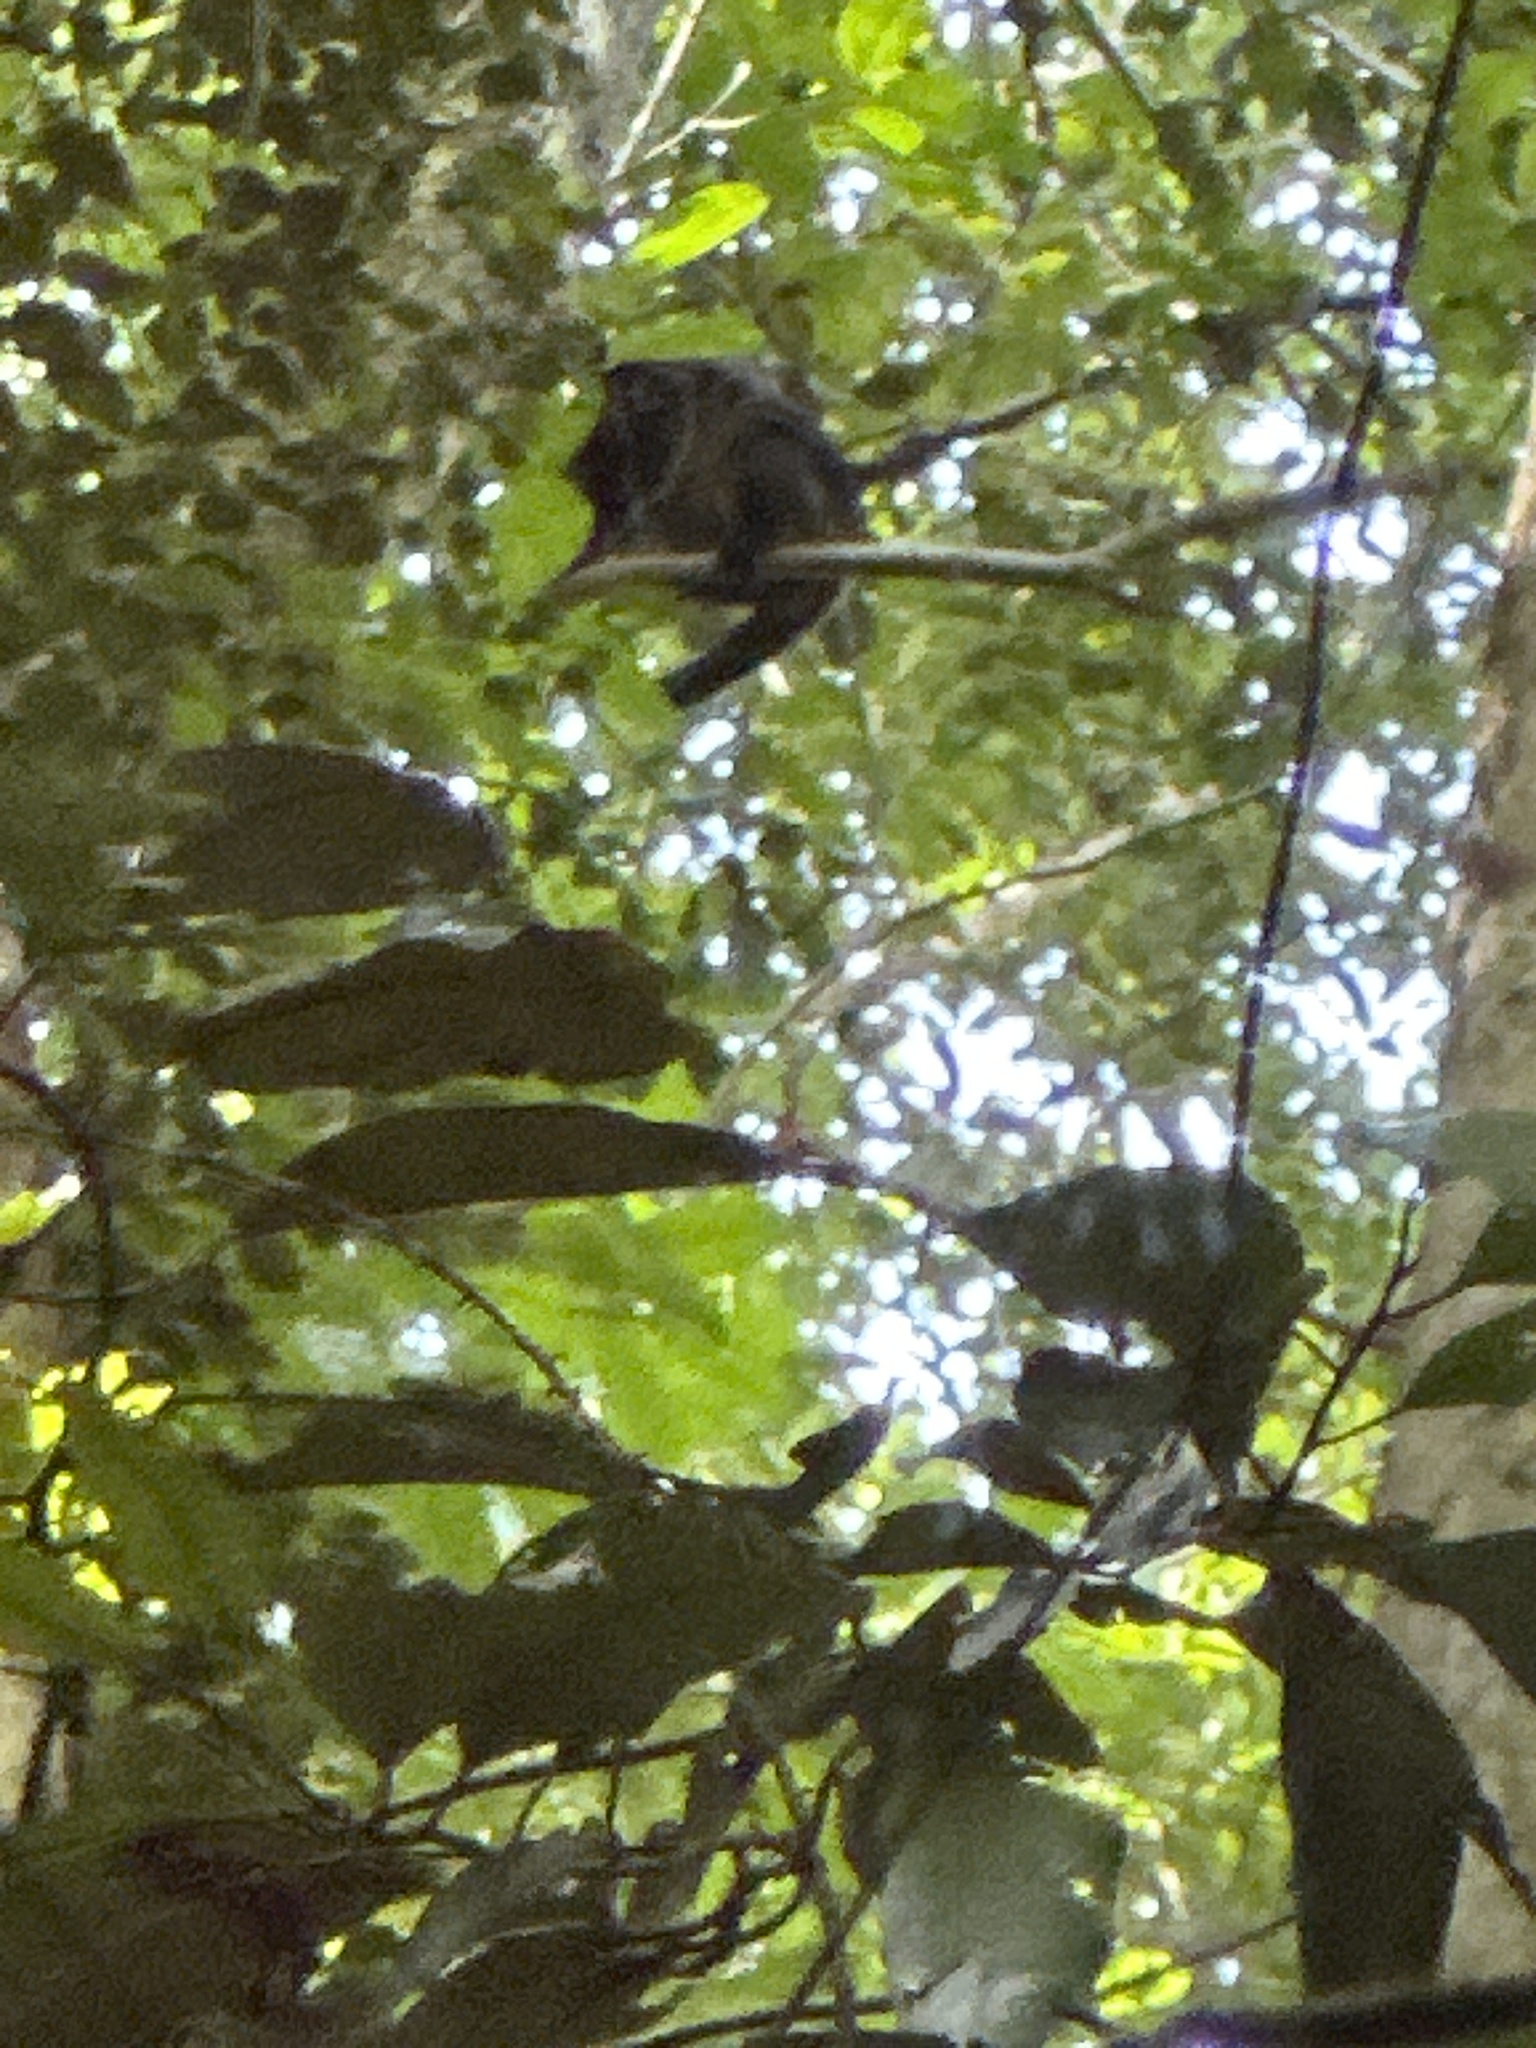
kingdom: Animalia
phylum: Chordata
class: Mammalia
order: Diprotodontia
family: Phalangeridae
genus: Ailurops
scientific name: Ailurops ursinus
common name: Sulawesi bear cuscus
